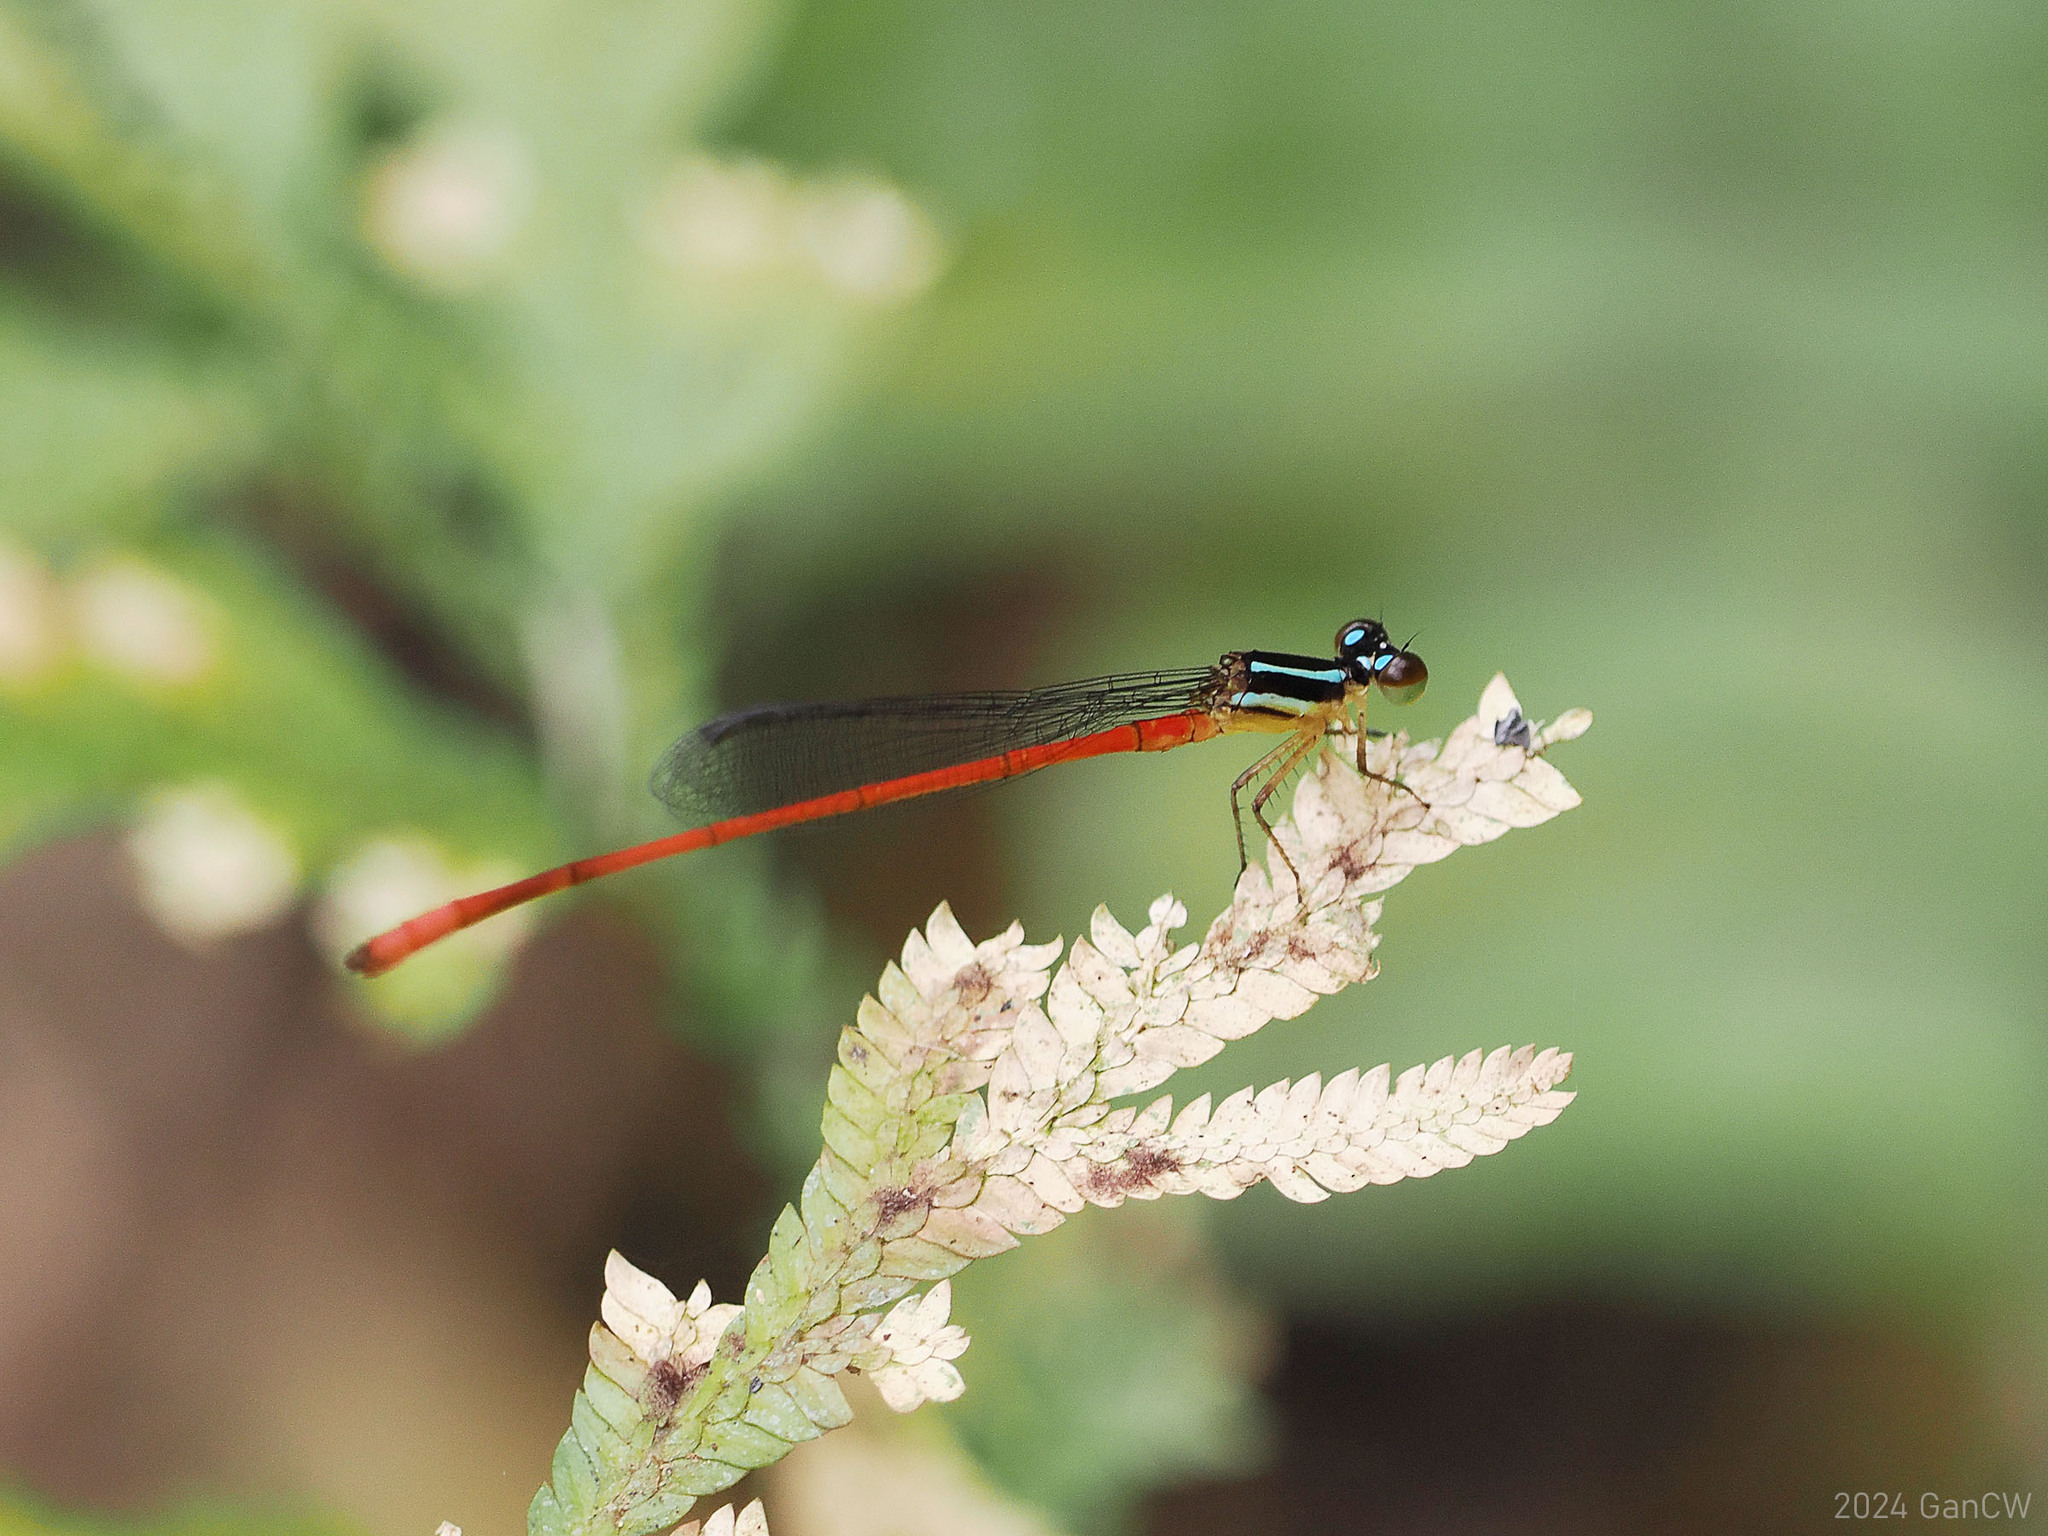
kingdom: Animalia
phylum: Arthropoda
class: Insecta
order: Odonata
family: Coenagrionidae
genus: Argiocnemis
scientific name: Argiocnemis rubescens
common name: Red-tipped shadefly
